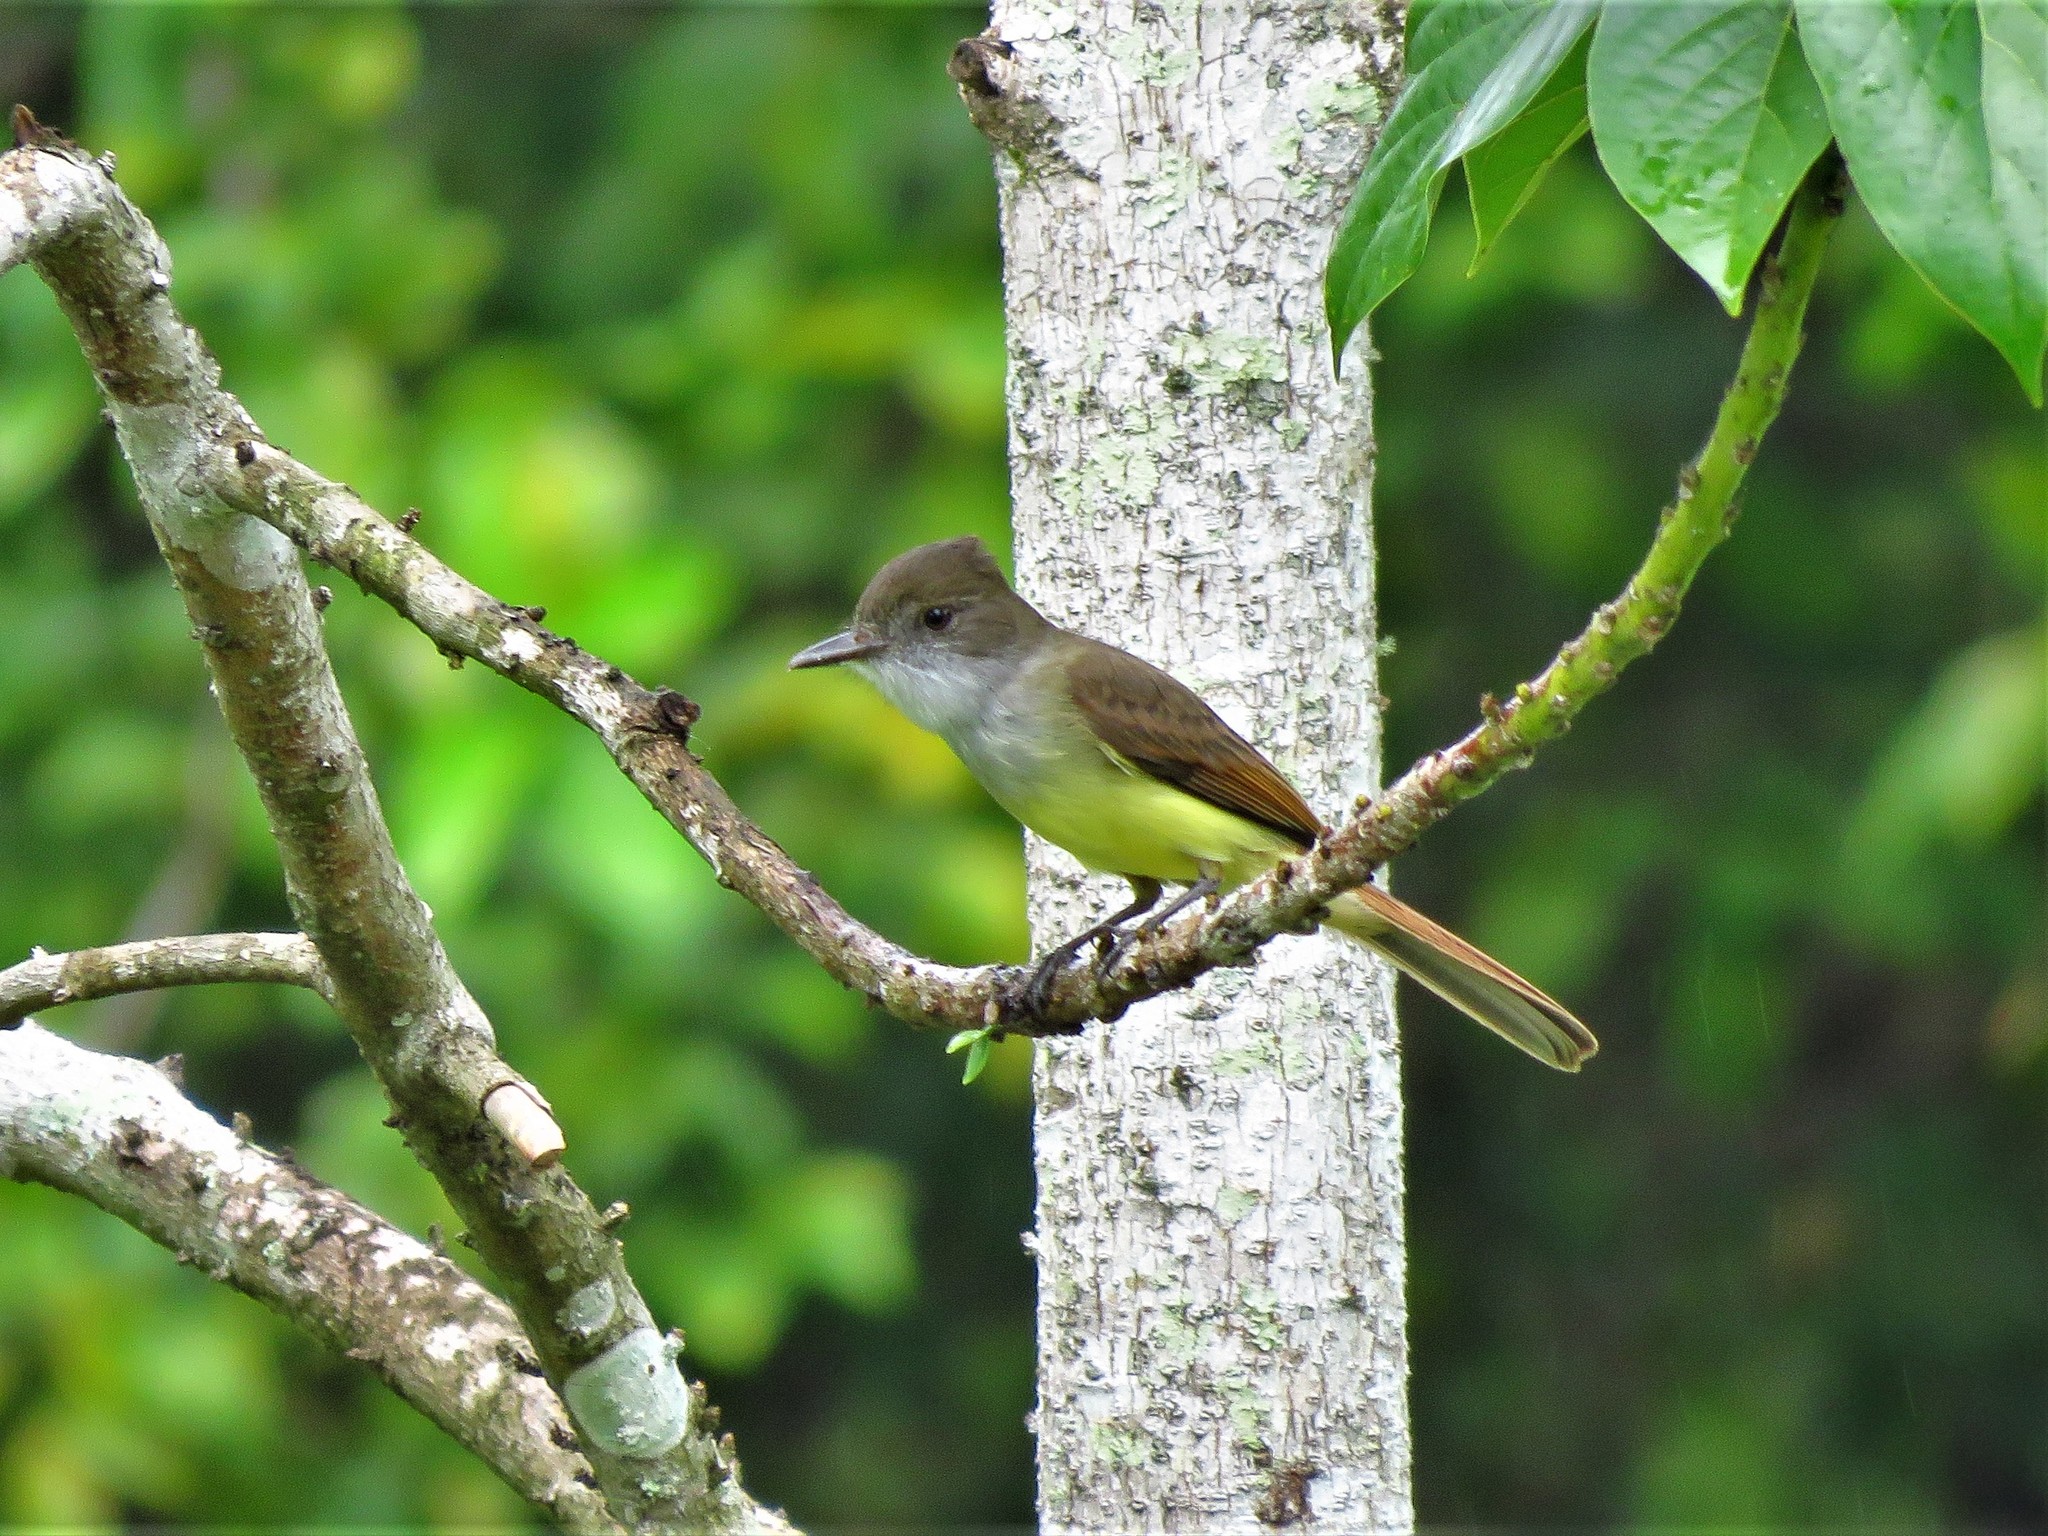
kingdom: Animalia
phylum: Chordata
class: Aves
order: Passeriformes
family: Tyrannidae
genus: Myiarchus
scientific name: Myiarchus tyrannulus
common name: Brown-crested flycatcher
